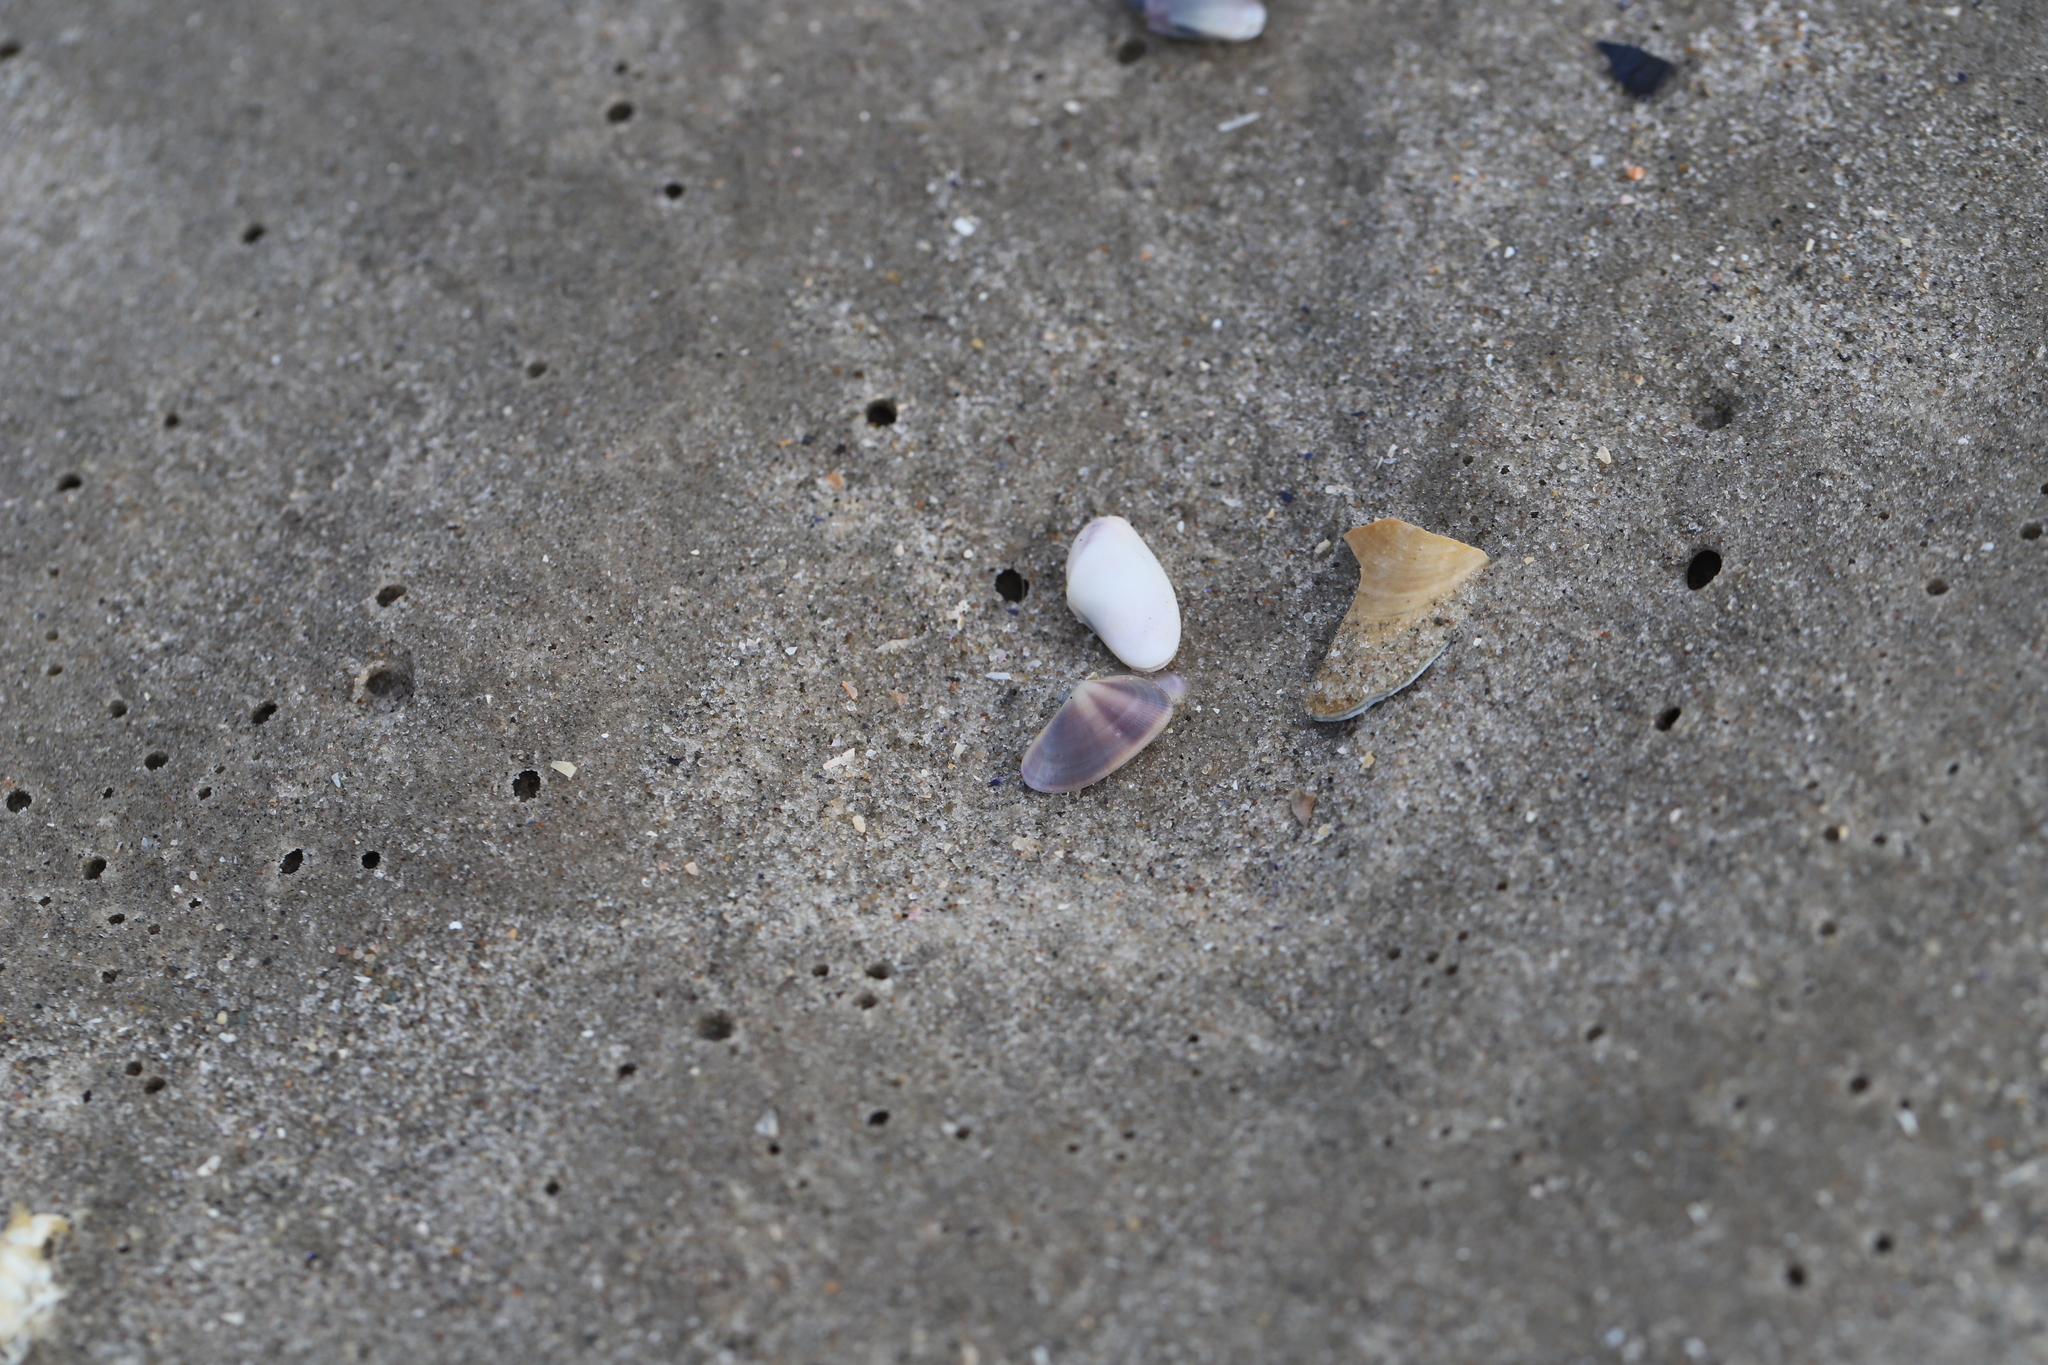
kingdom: Animalia
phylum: Mollusca
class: Bivalvia
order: Cardiida
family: Donacidae
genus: Donax
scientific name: Donax fossor
